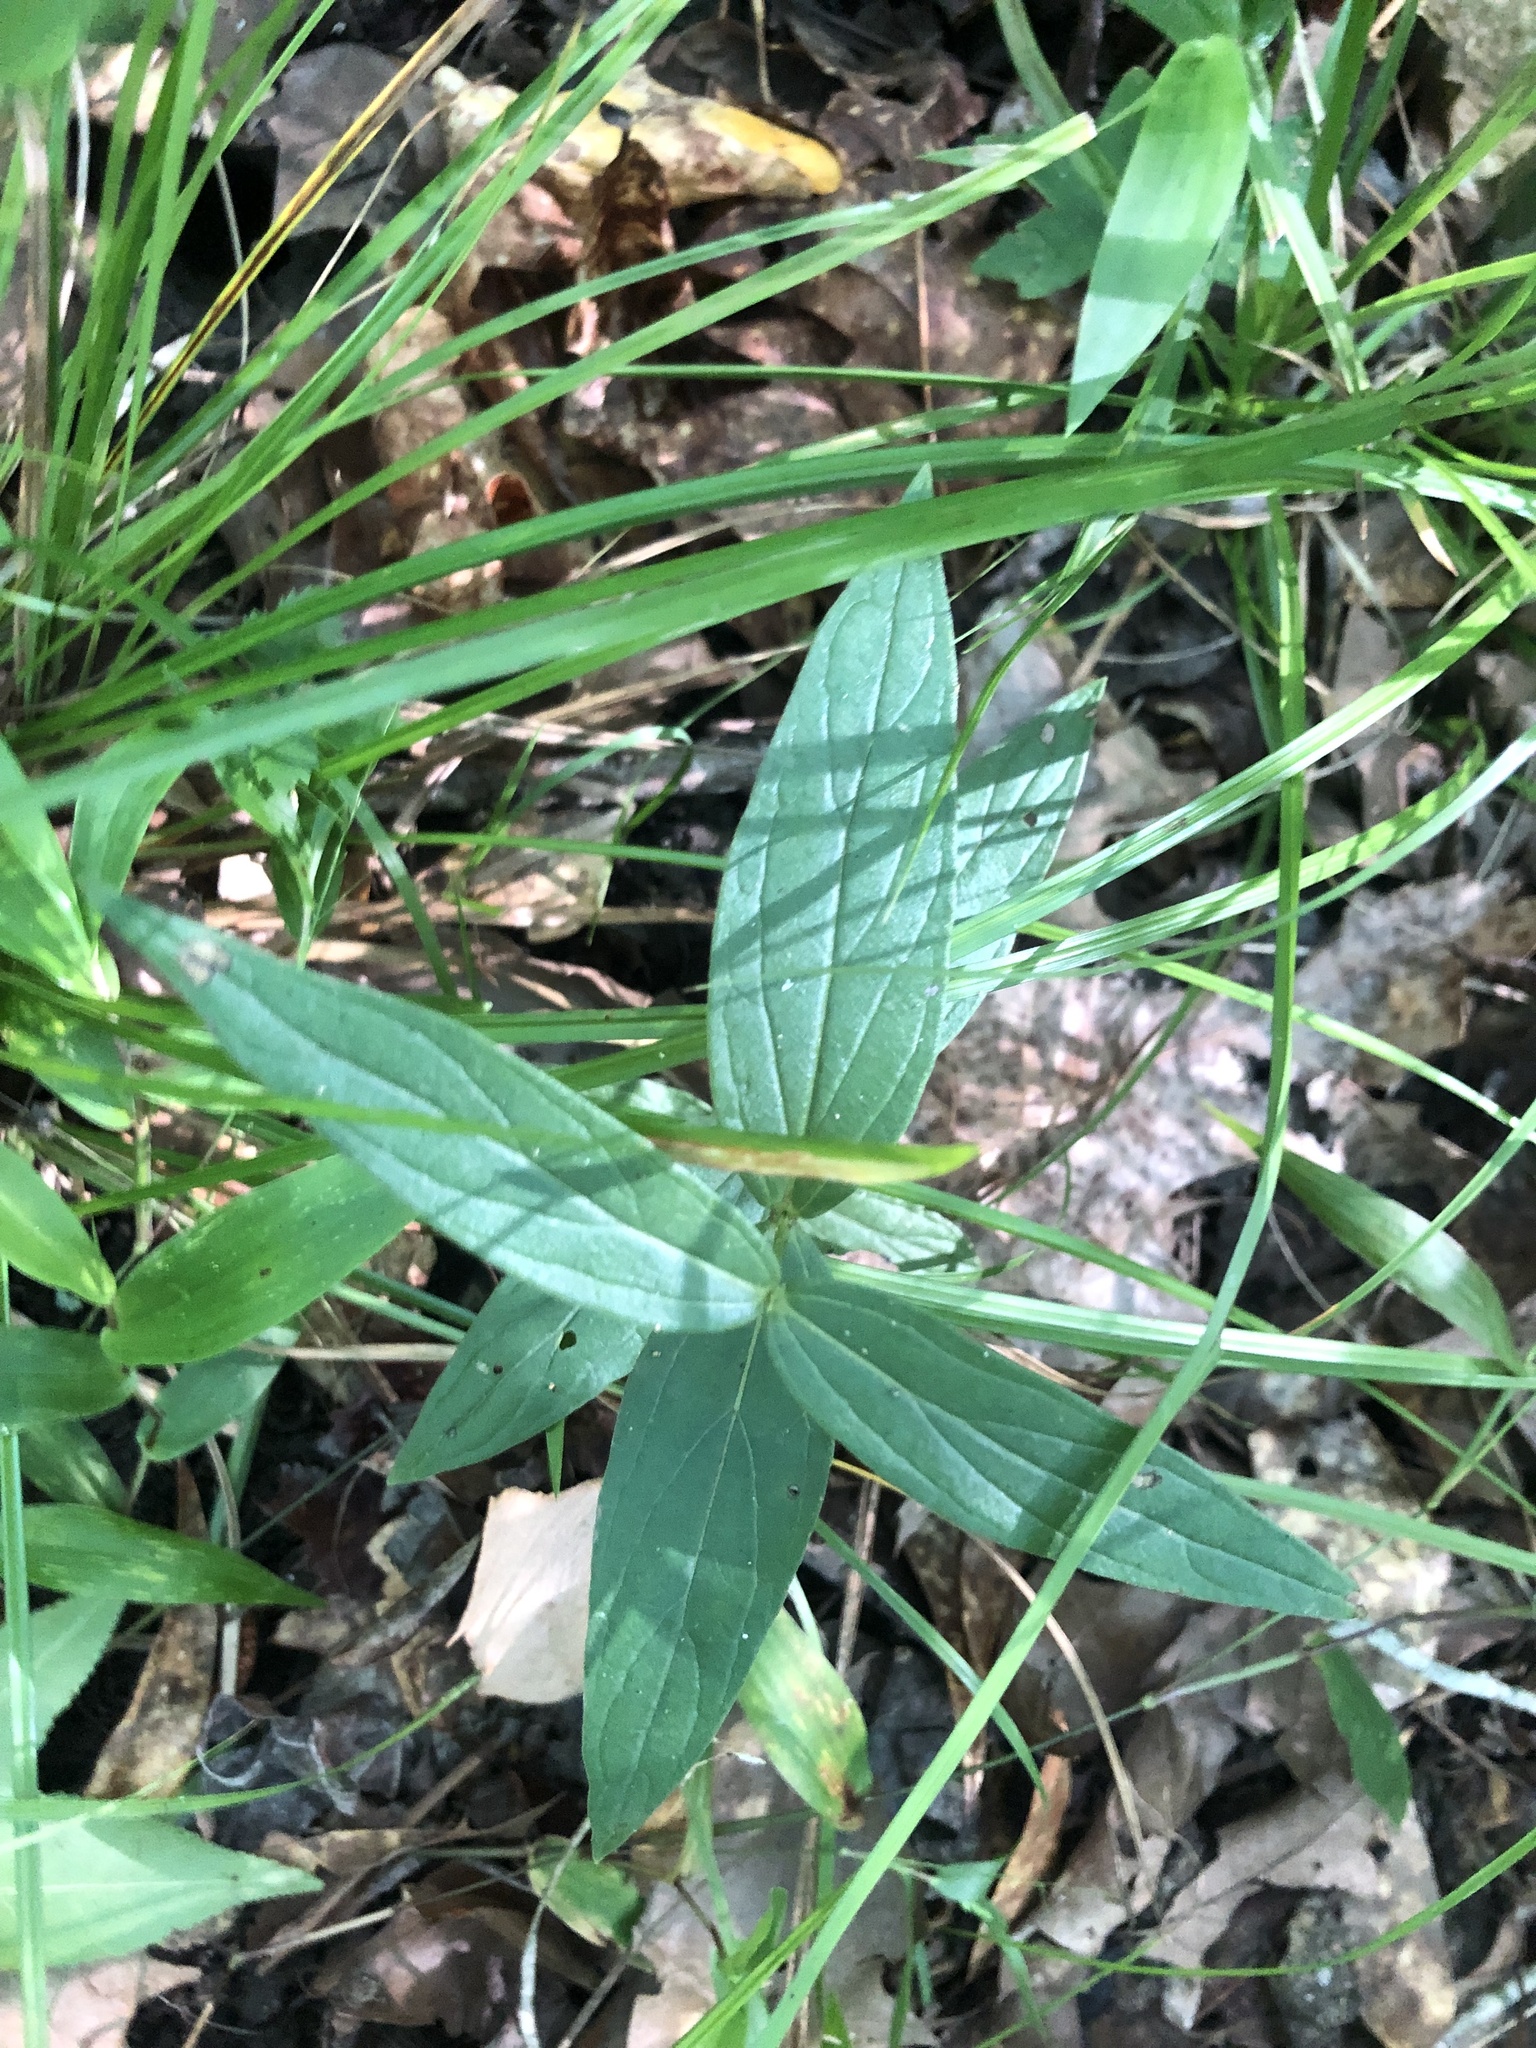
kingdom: Plantae
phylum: Tracheophyta
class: Magnoliopsida
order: Gentianales
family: Loganiaceae
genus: Spigelia
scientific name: Spigelia marilandica
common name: Indian-pink
